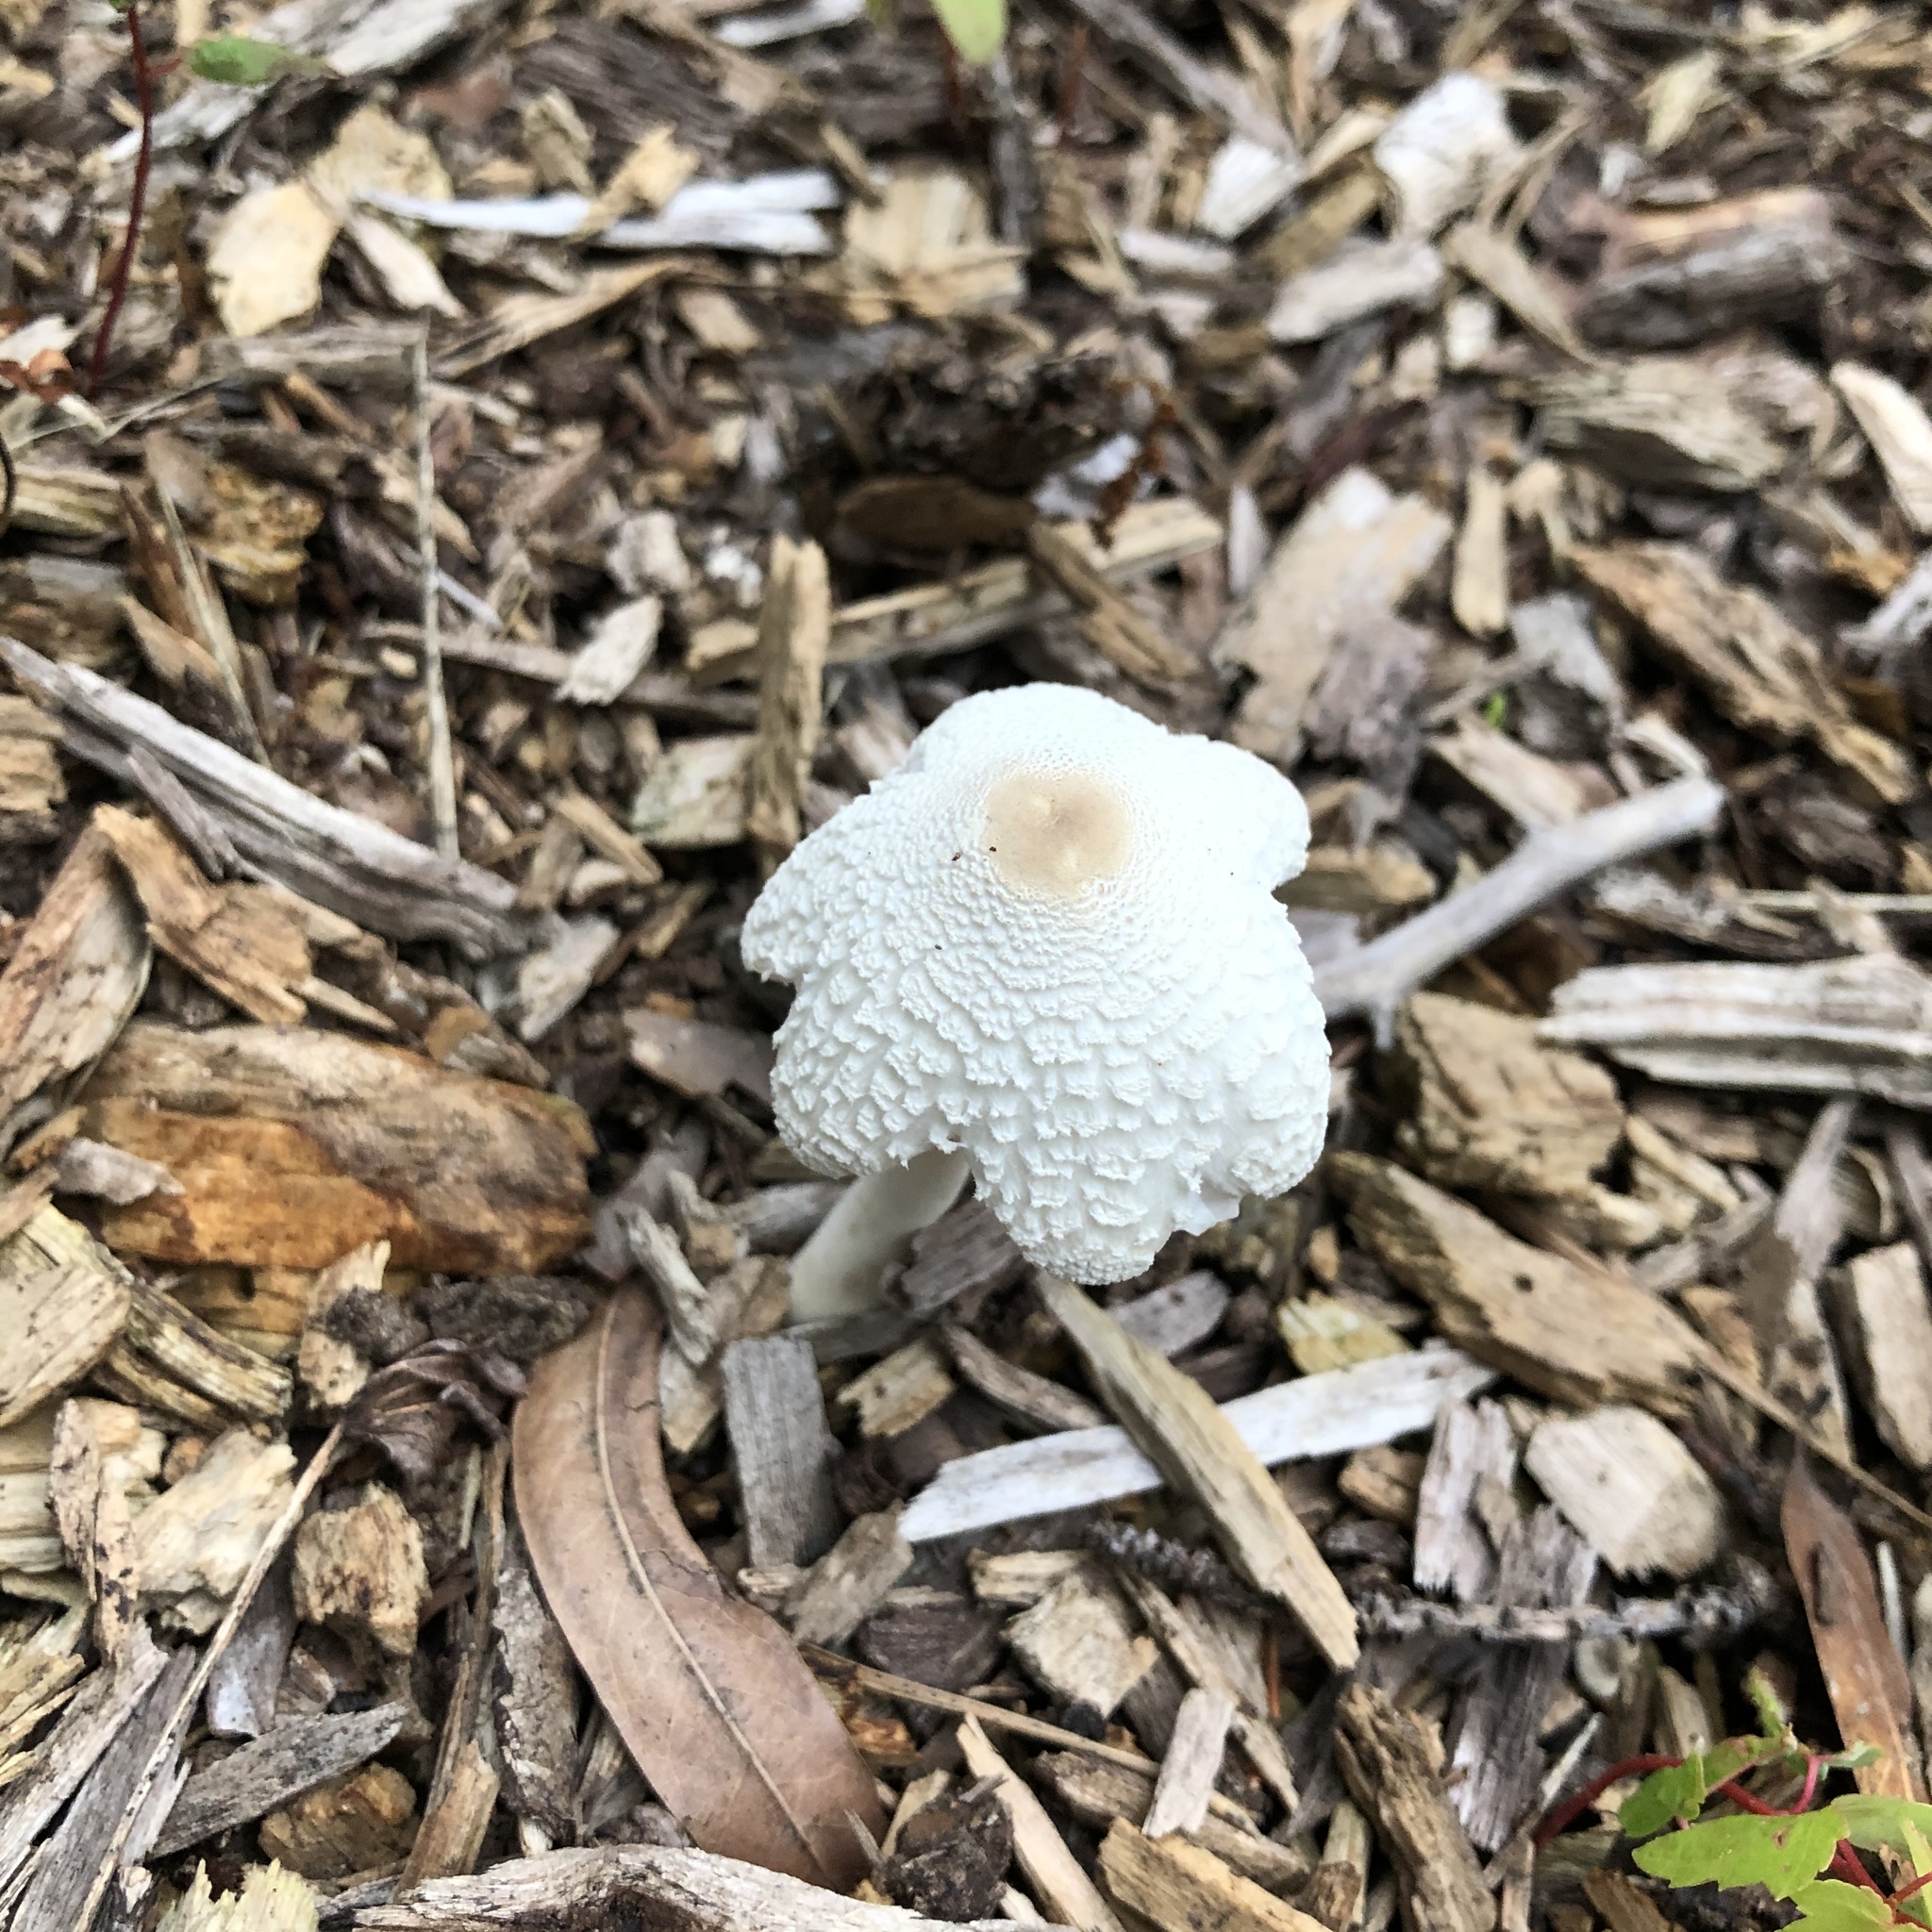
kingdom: Fungi
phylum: Basidiomycota
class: Agaricomycetes
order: Agaricales
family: Agaricaceae
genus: Leucocoprinus
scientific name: Leucocoprinus cepistipes
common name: Onion-stalk parasol
